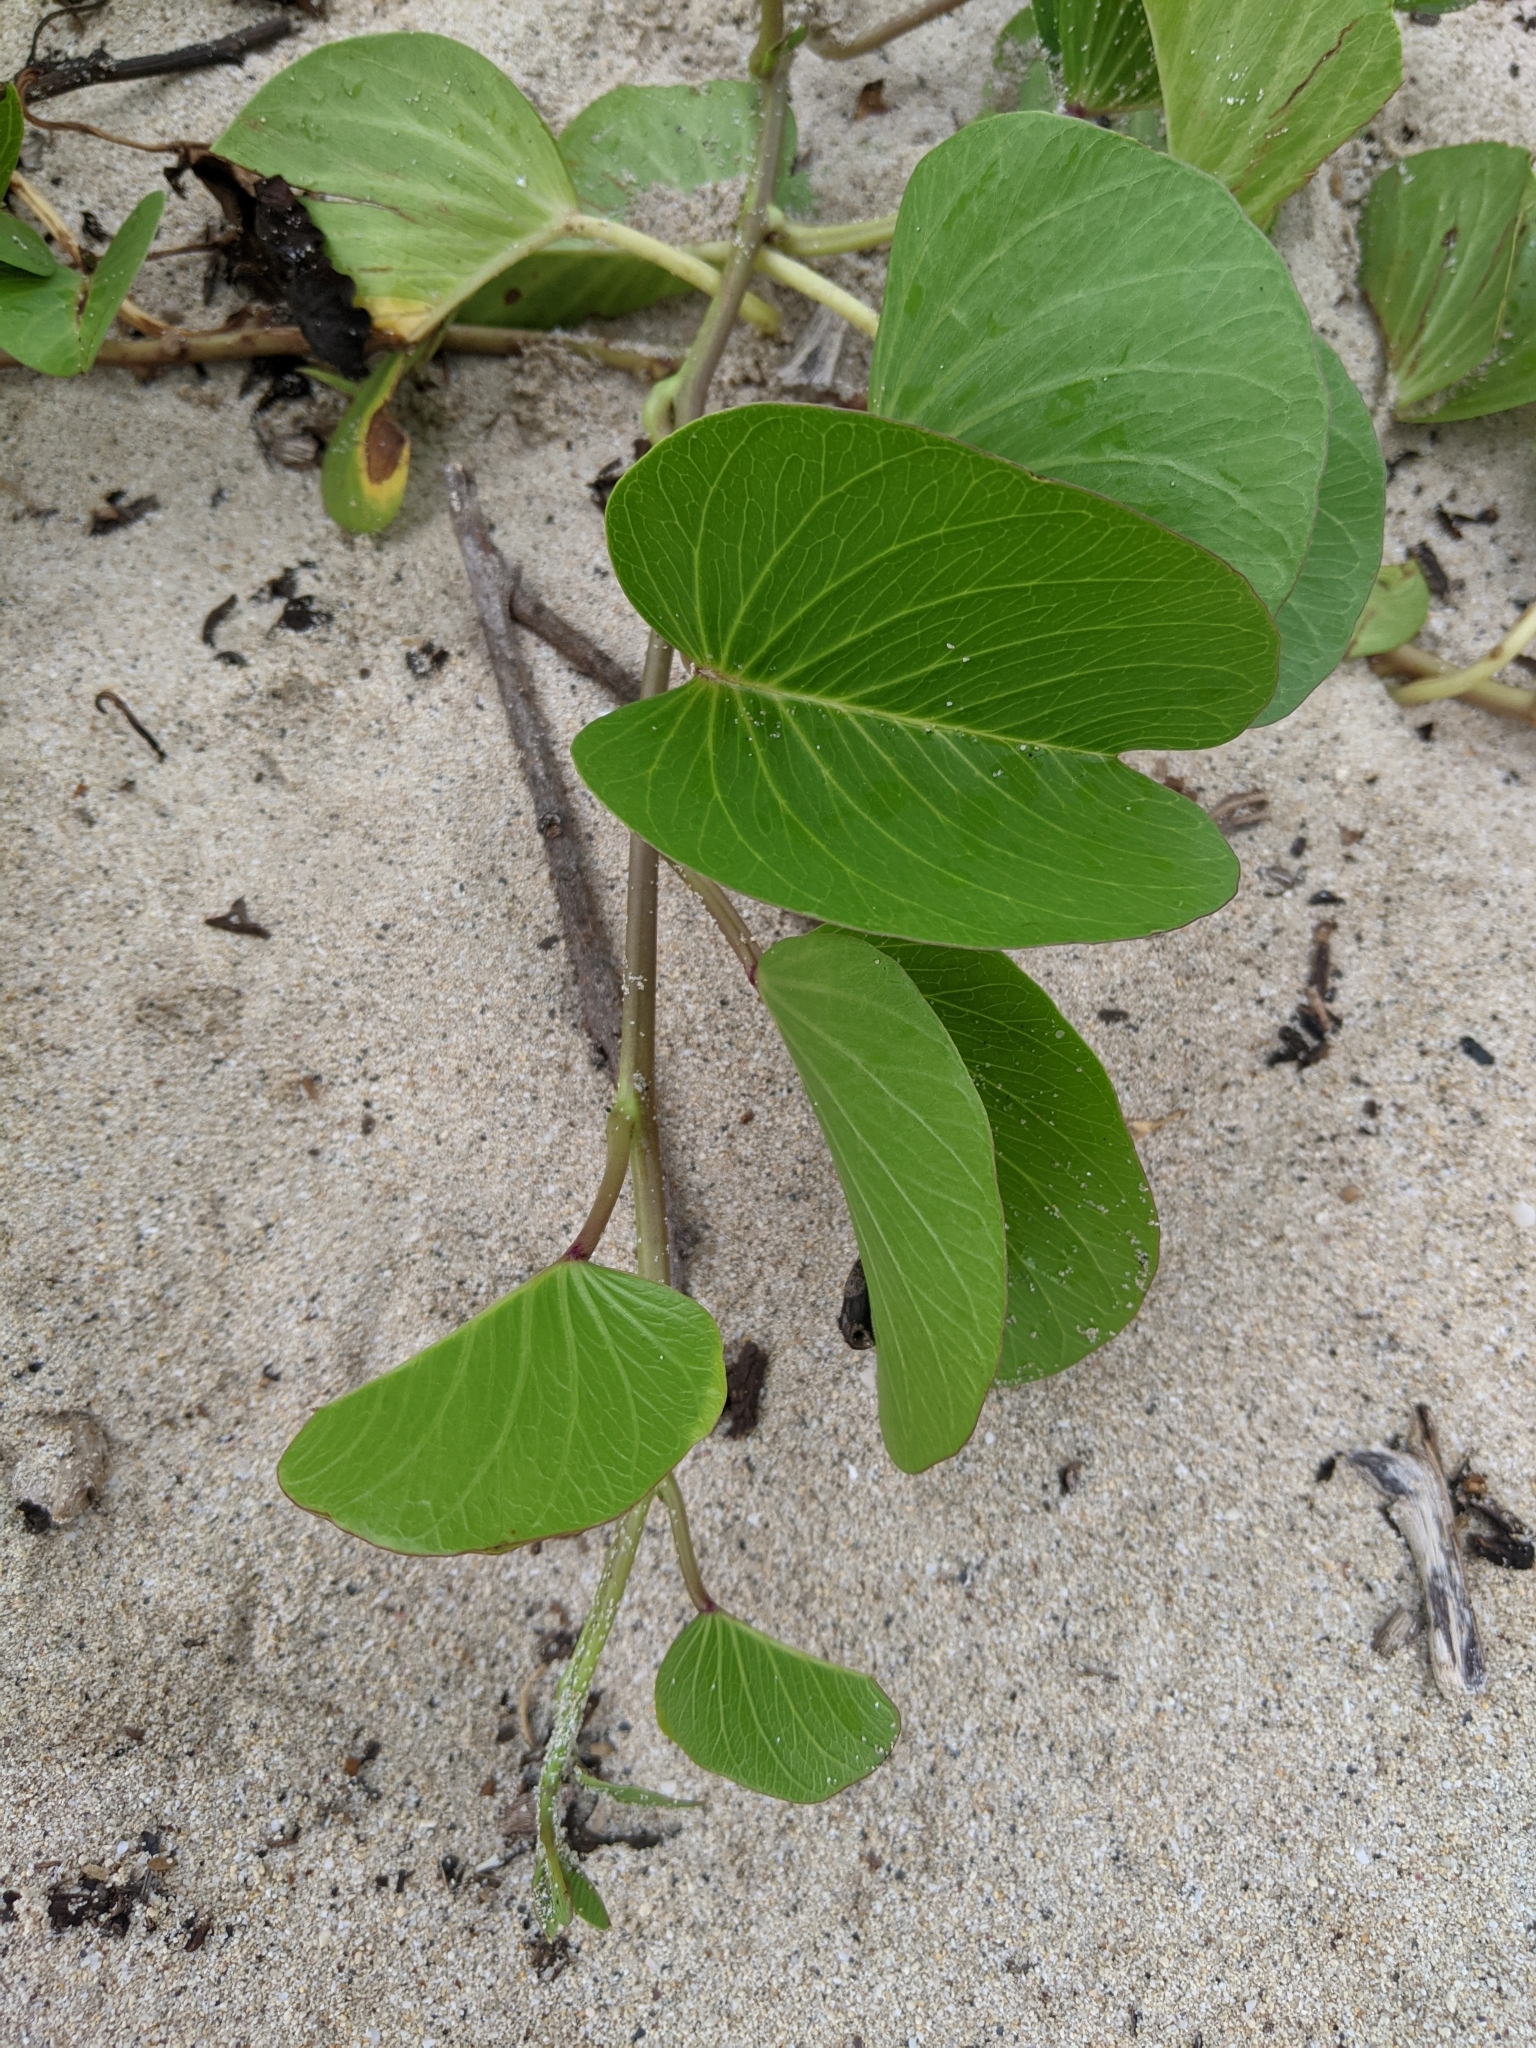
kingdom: Plantae
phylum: Tracheophyta
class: Magnoliopsida
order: Solanales
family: Convolvulaceae
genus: Ipomoea
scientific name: Ipomoea pes-caprae
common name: Beach morning glory
